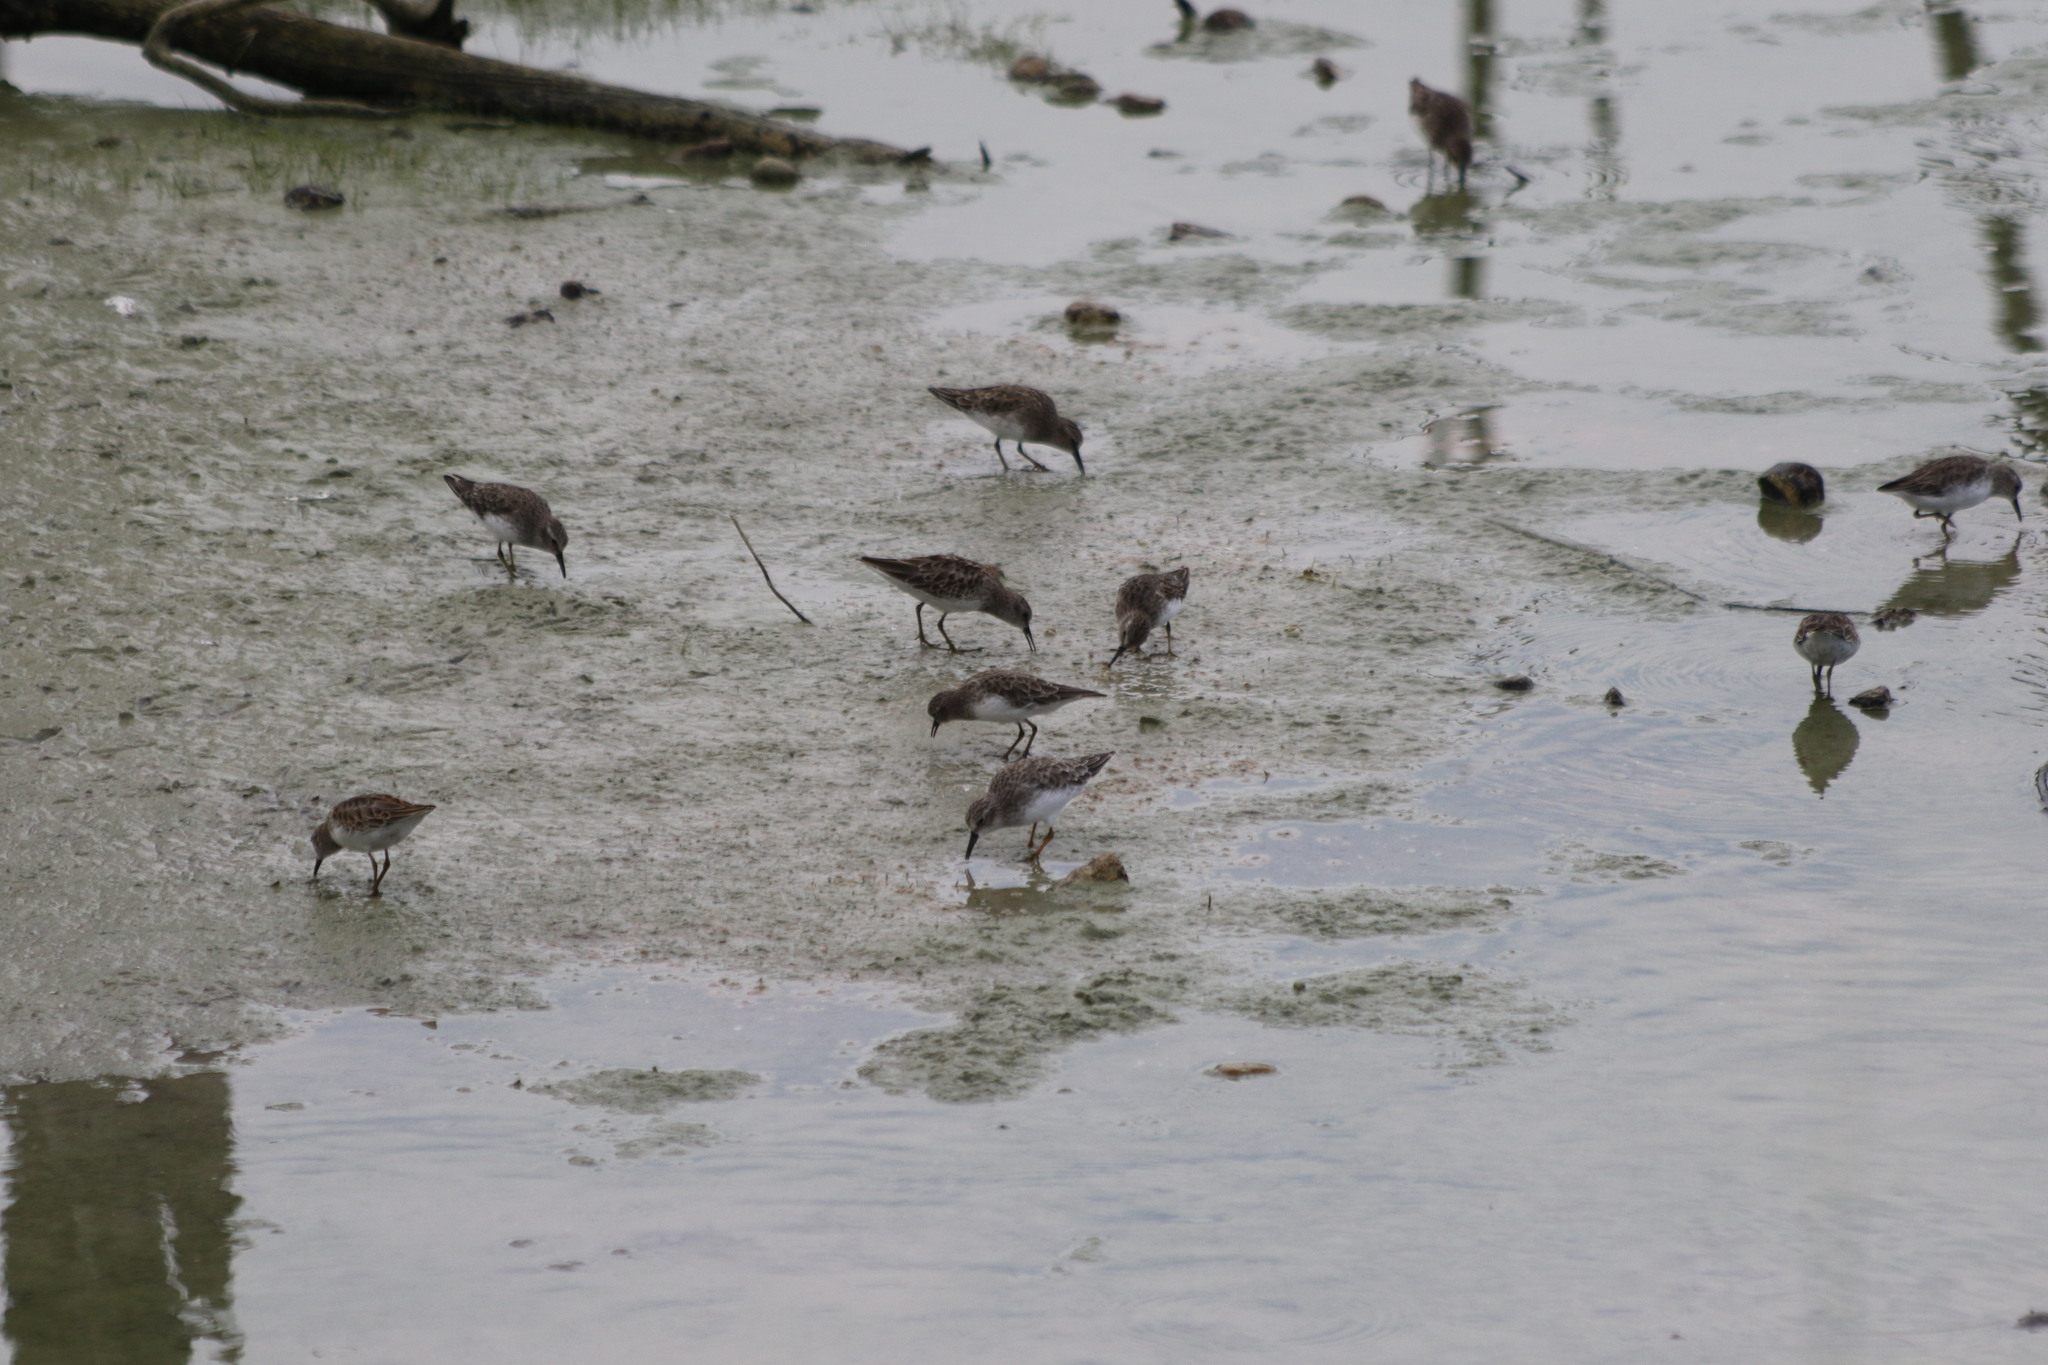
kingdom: Animalia
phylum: Chordata
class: Aves
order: Charadriiformes
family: Scolopacidae
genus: Calidris
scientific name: Calidris minutilla
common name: Least sandpiper
